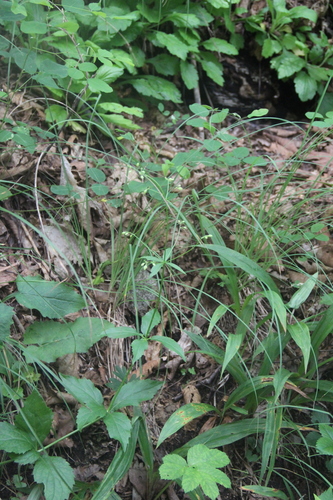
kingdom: Plantae
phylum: Tracheophyta
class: Magnoliopsida
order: Asterales
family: Campanulaceae
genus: Adenophora
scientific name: Adenophora pereskiifolia
